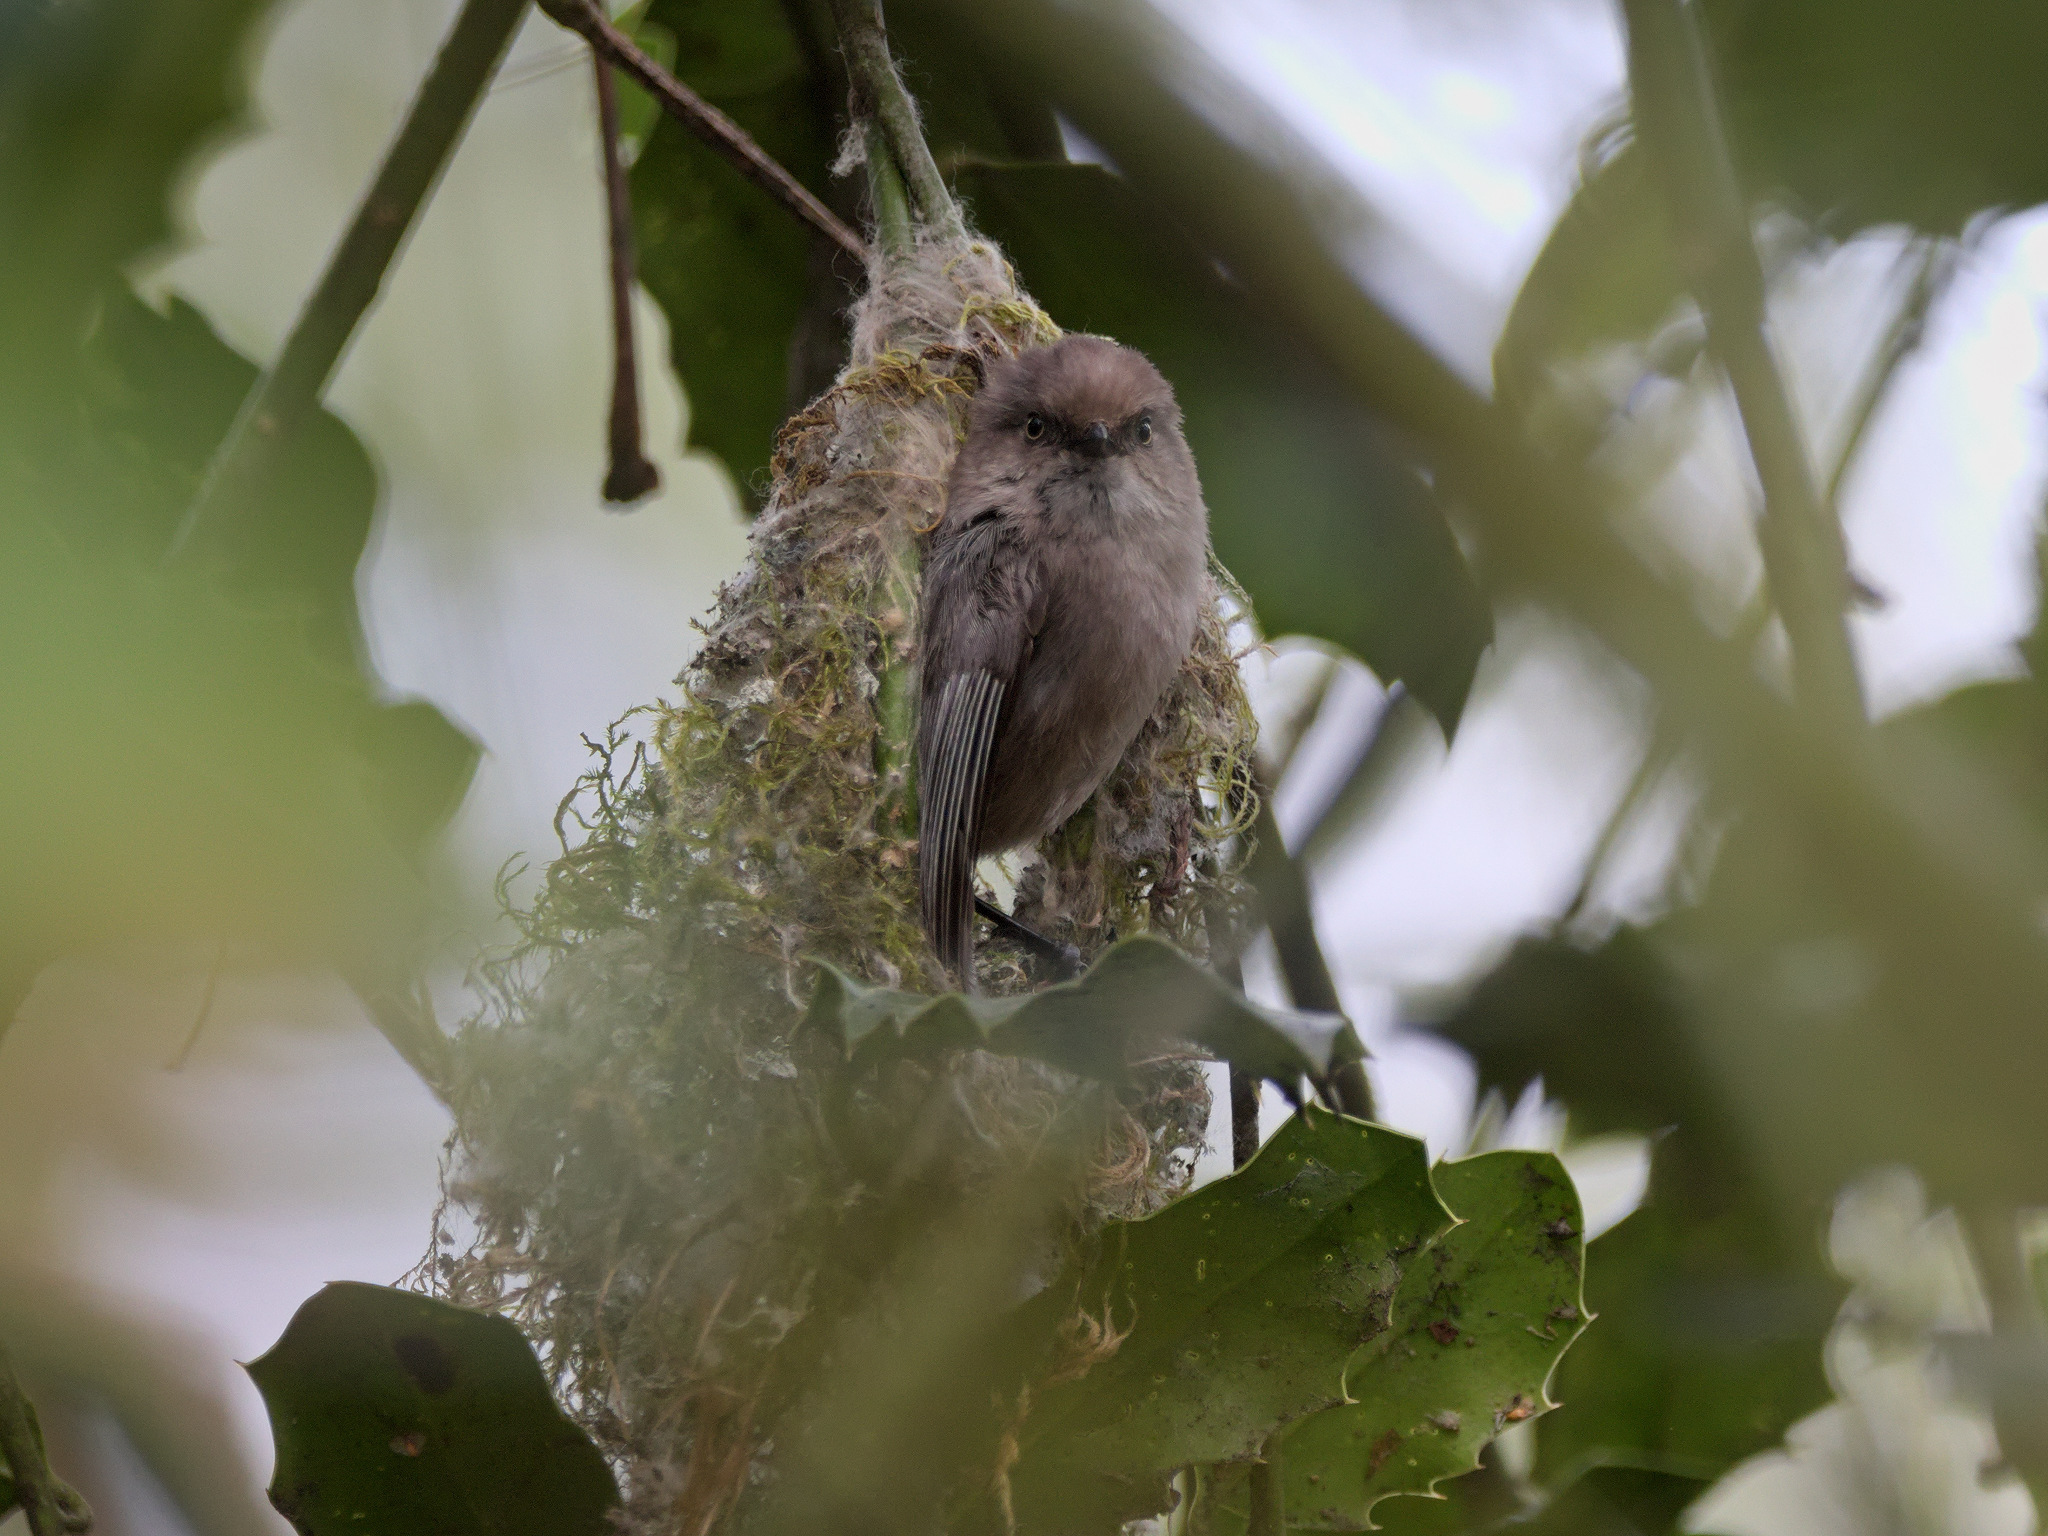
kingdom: Animalia
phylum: Chordata
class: Aves
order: Passeriformes
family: Aegithalidae
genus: Psaltriparus
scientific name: Psaltriparus minimus
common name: American bushtit
